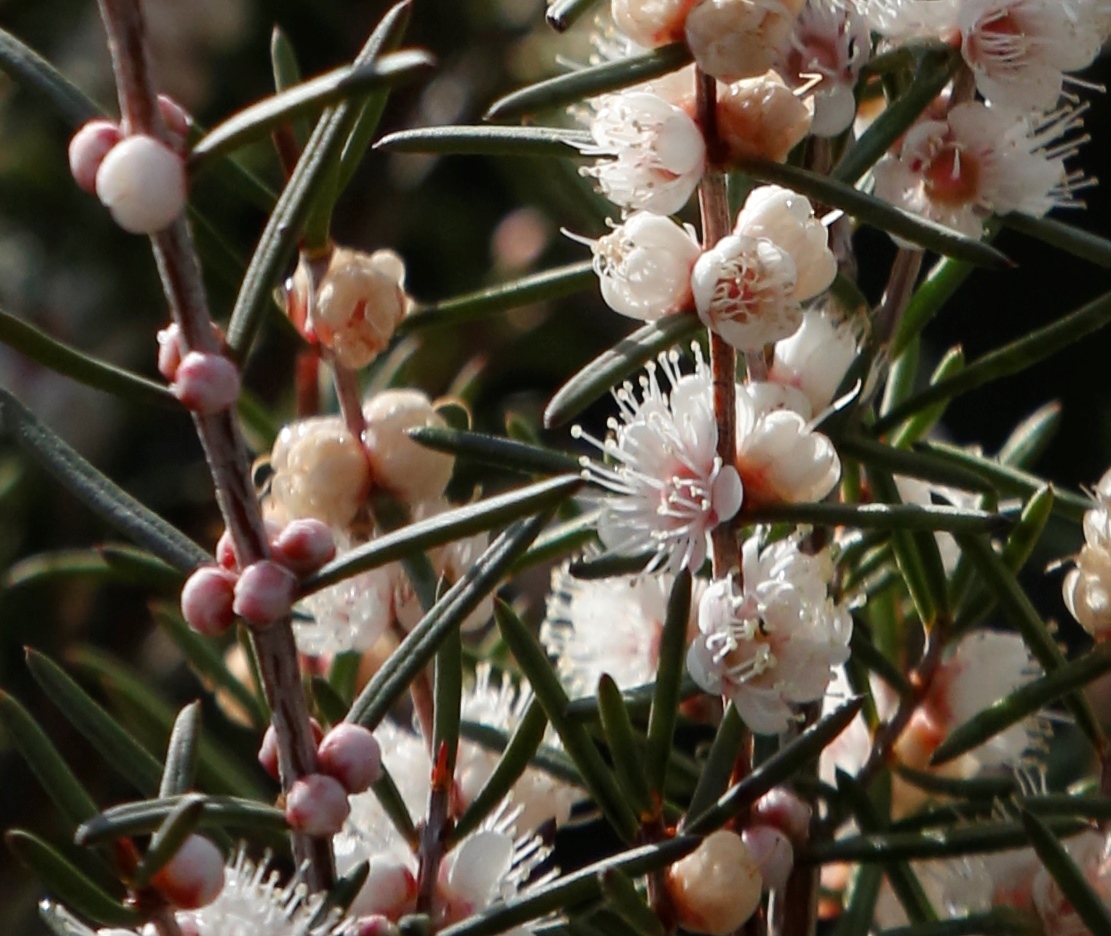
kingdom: Plantae
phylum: Tracheophyta
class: Magnoliopsida
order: Myrtales
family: Myrtaceae
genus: Hypocalymma
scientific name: Hypocalymma angustifolium
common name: White myrtle
